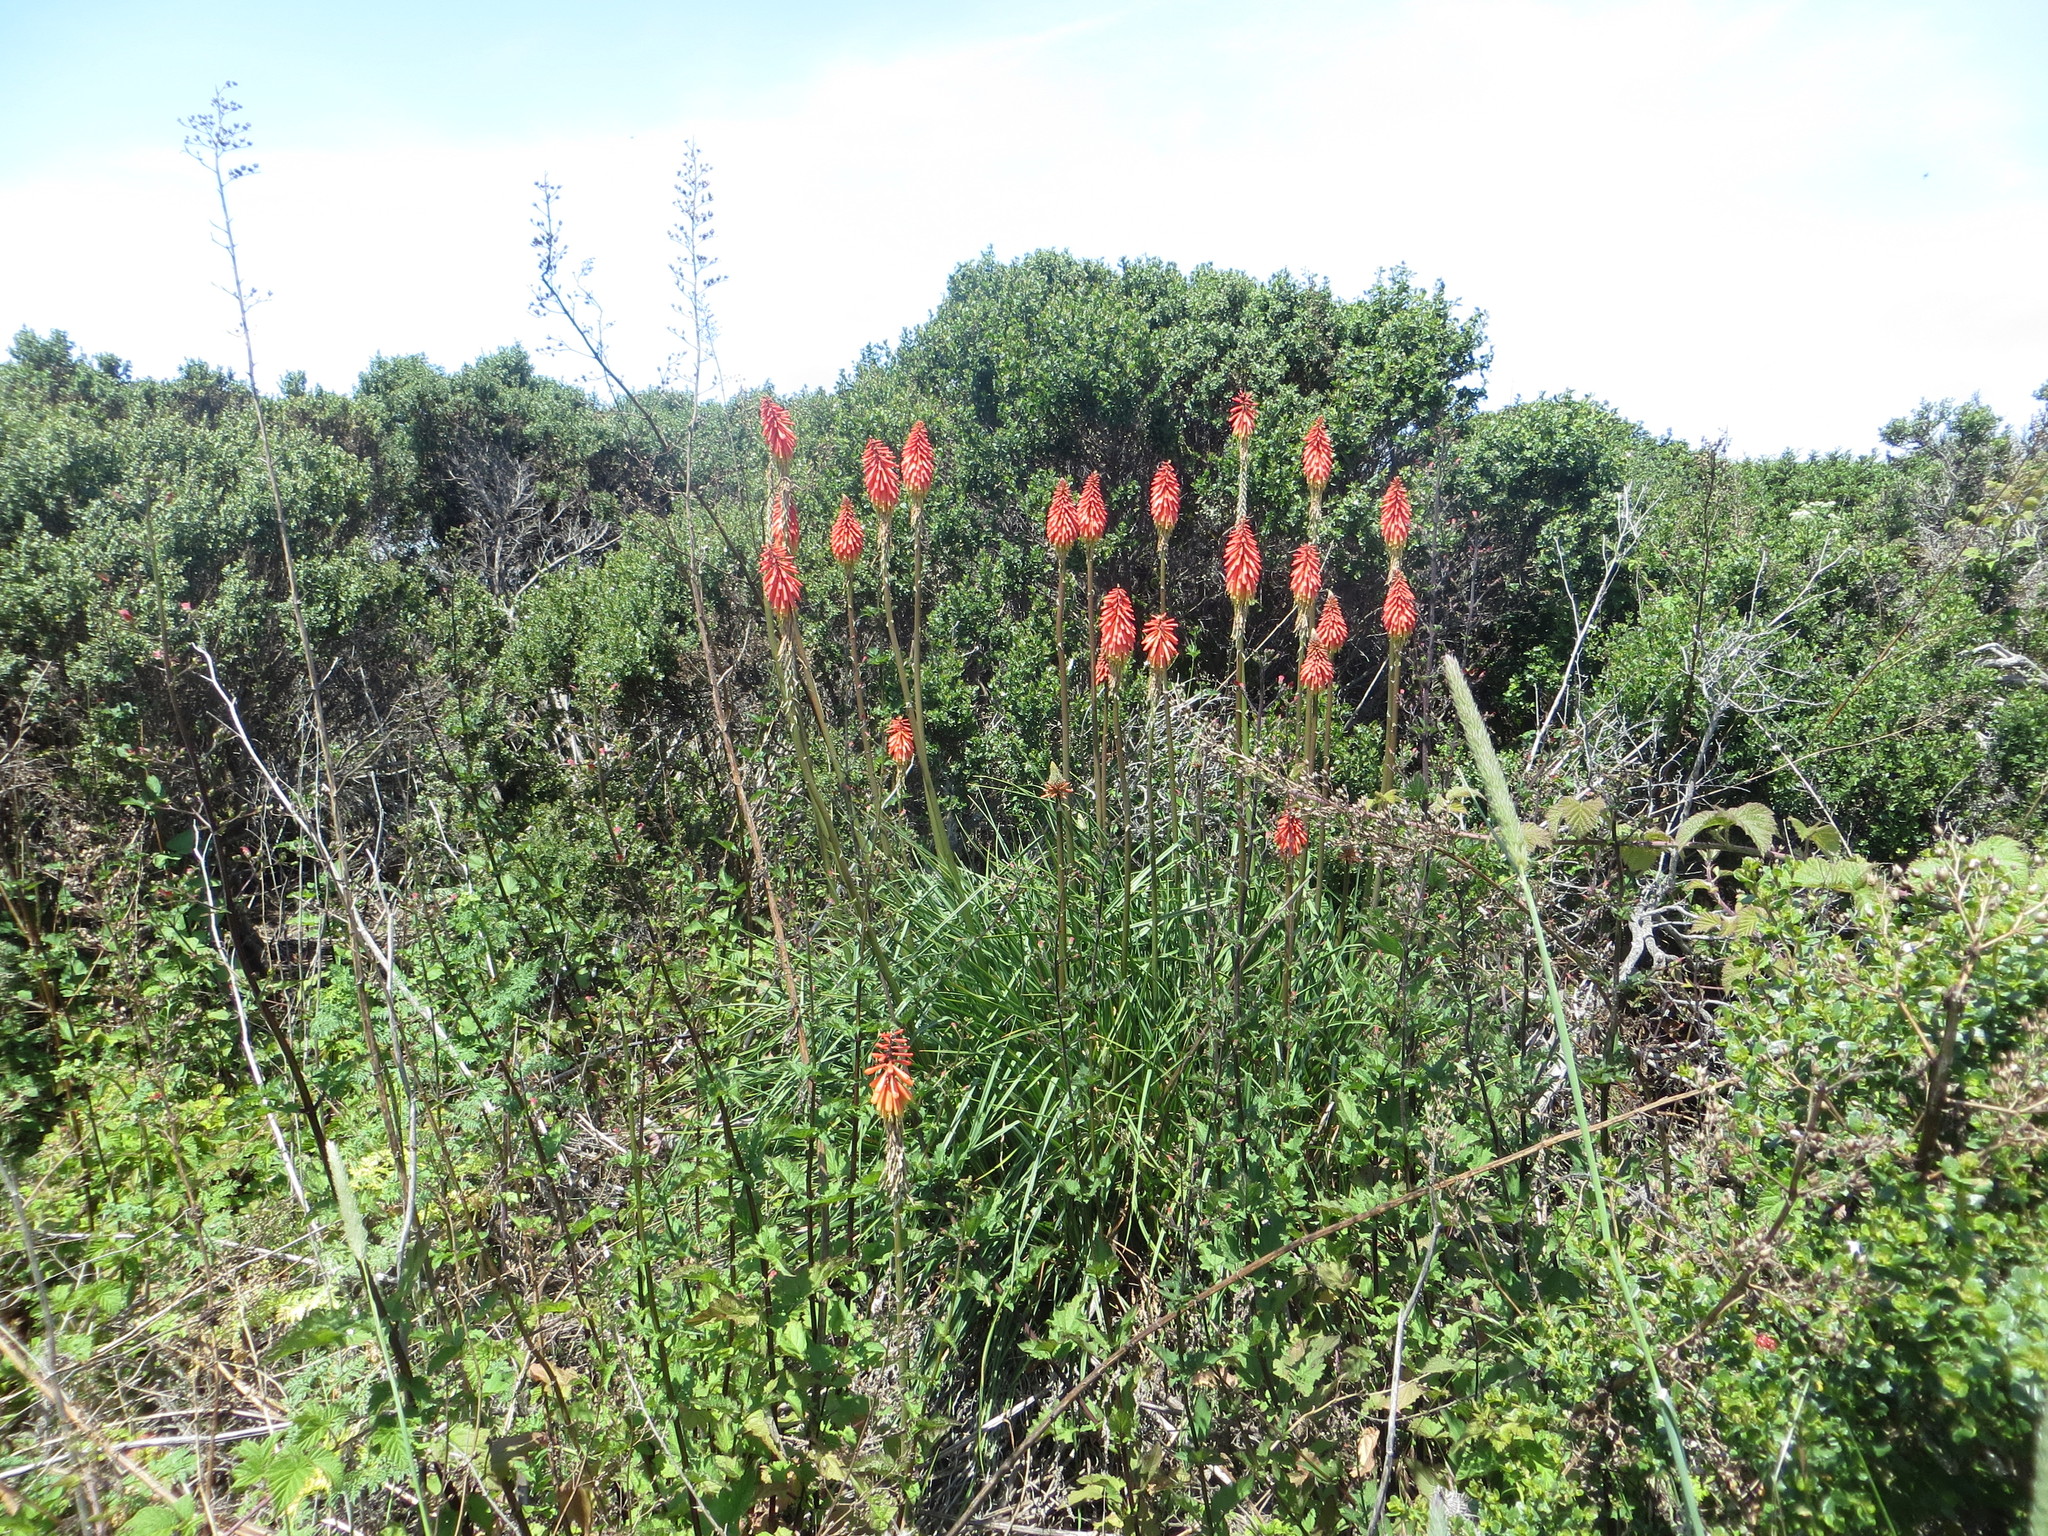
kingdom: Plantae
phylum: Tracheophyta
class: Liliopsida
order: Asparagales
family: Asphodelaceae
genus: Kniphofia
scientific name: Kniphofia uvaria
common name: Red-hot-poker
